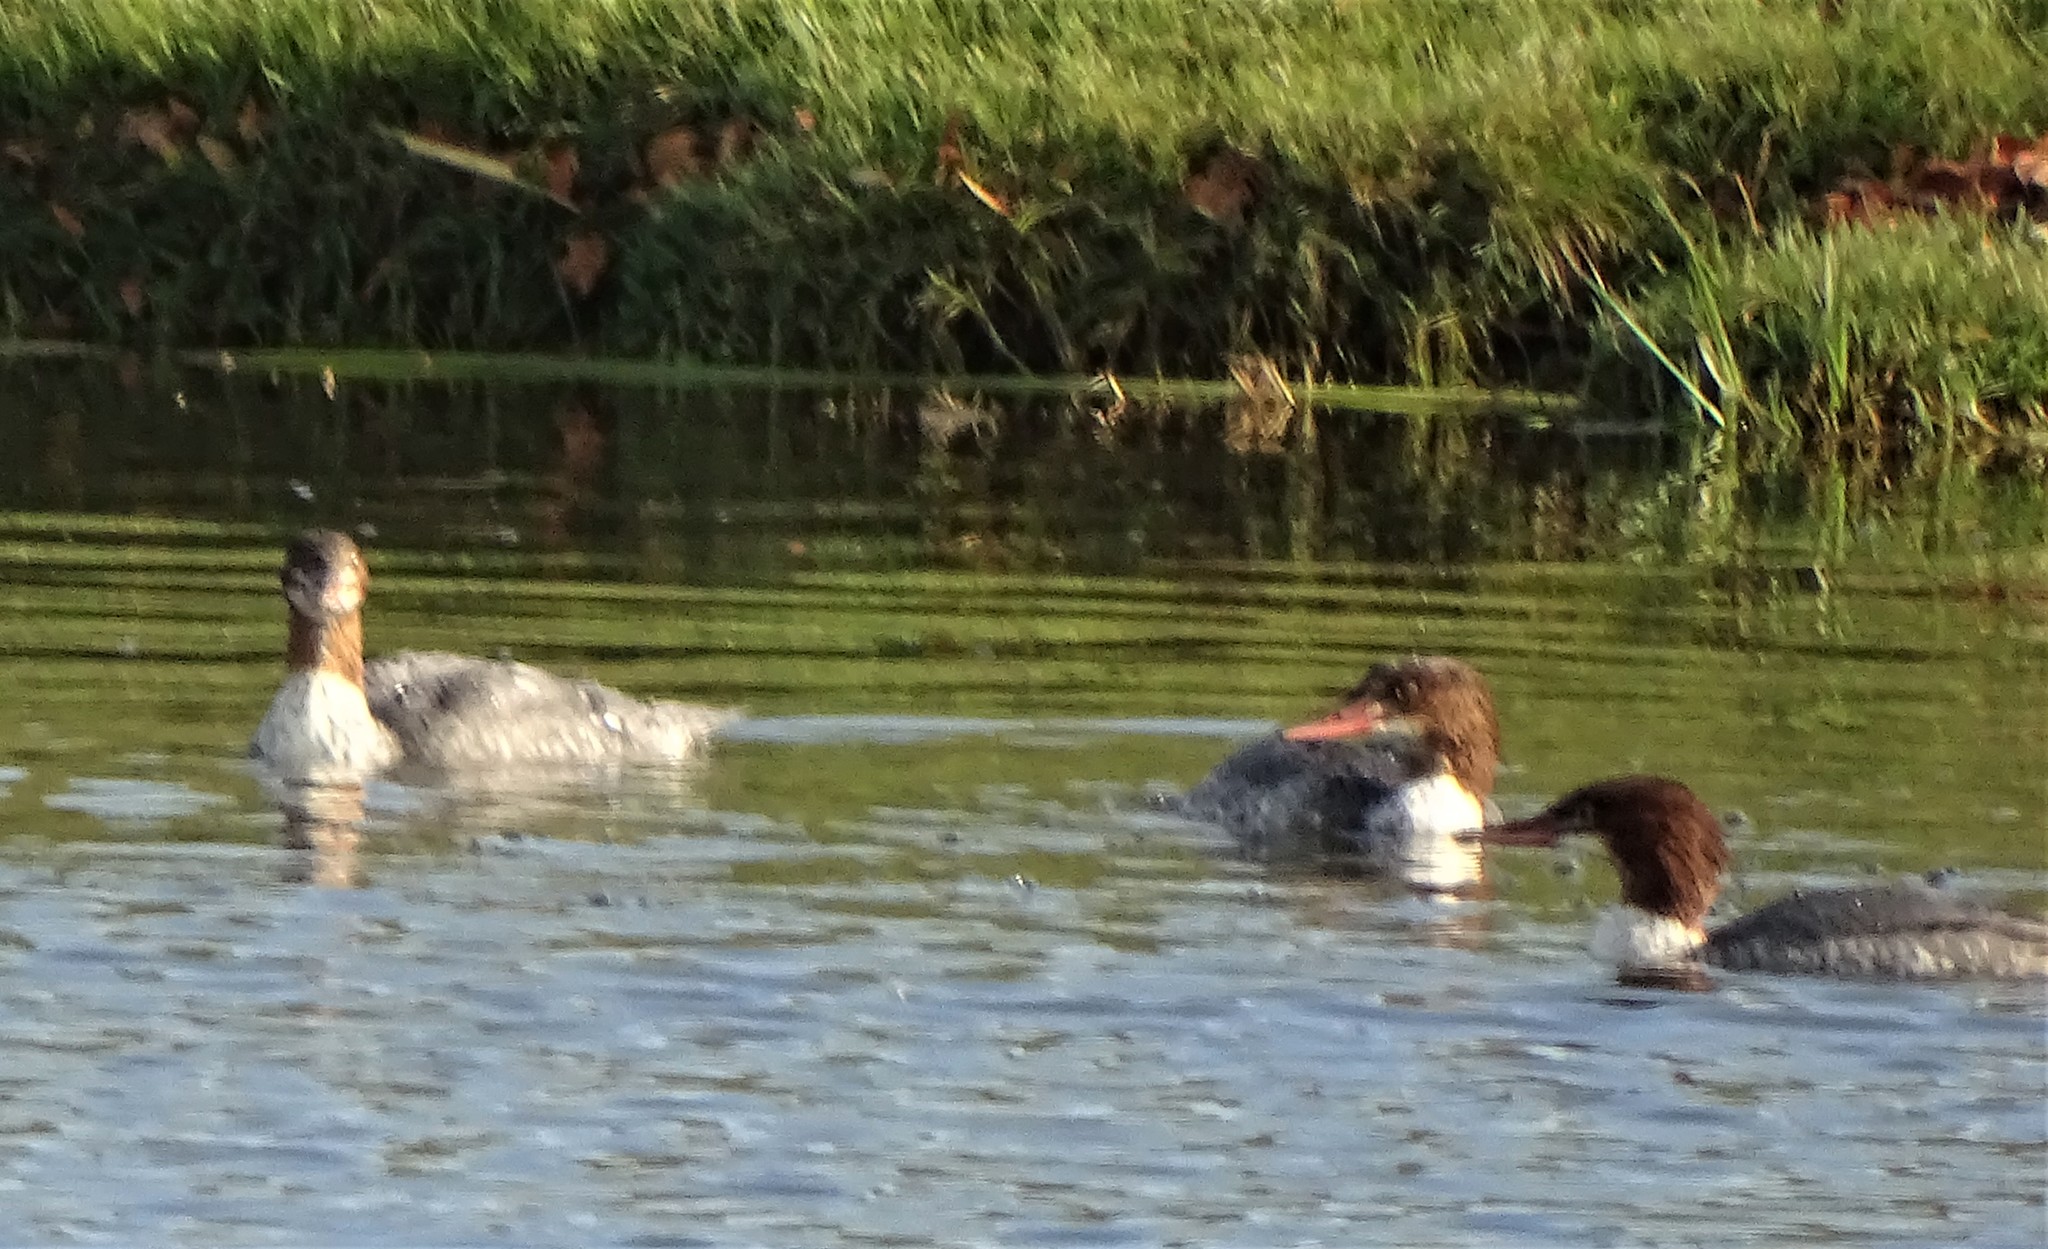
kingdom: Animalia
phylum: Chordata
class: Aves
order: Anseriformes
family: Anatidae
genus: Mergus
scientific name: Mergus merganser
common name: Common merganser
